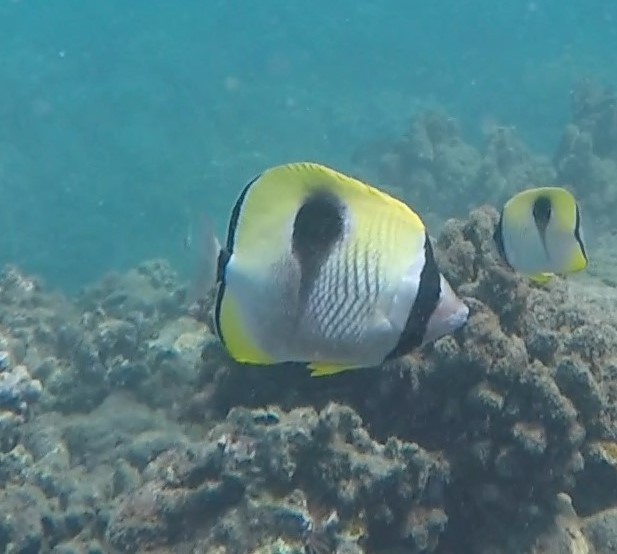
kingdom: Animalia
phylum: Chordata
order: Perciformes
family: Chaetodontidae
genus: Chaetodon
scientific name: Chaetodon unimaculatus
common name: Teardrop butterflyfish
